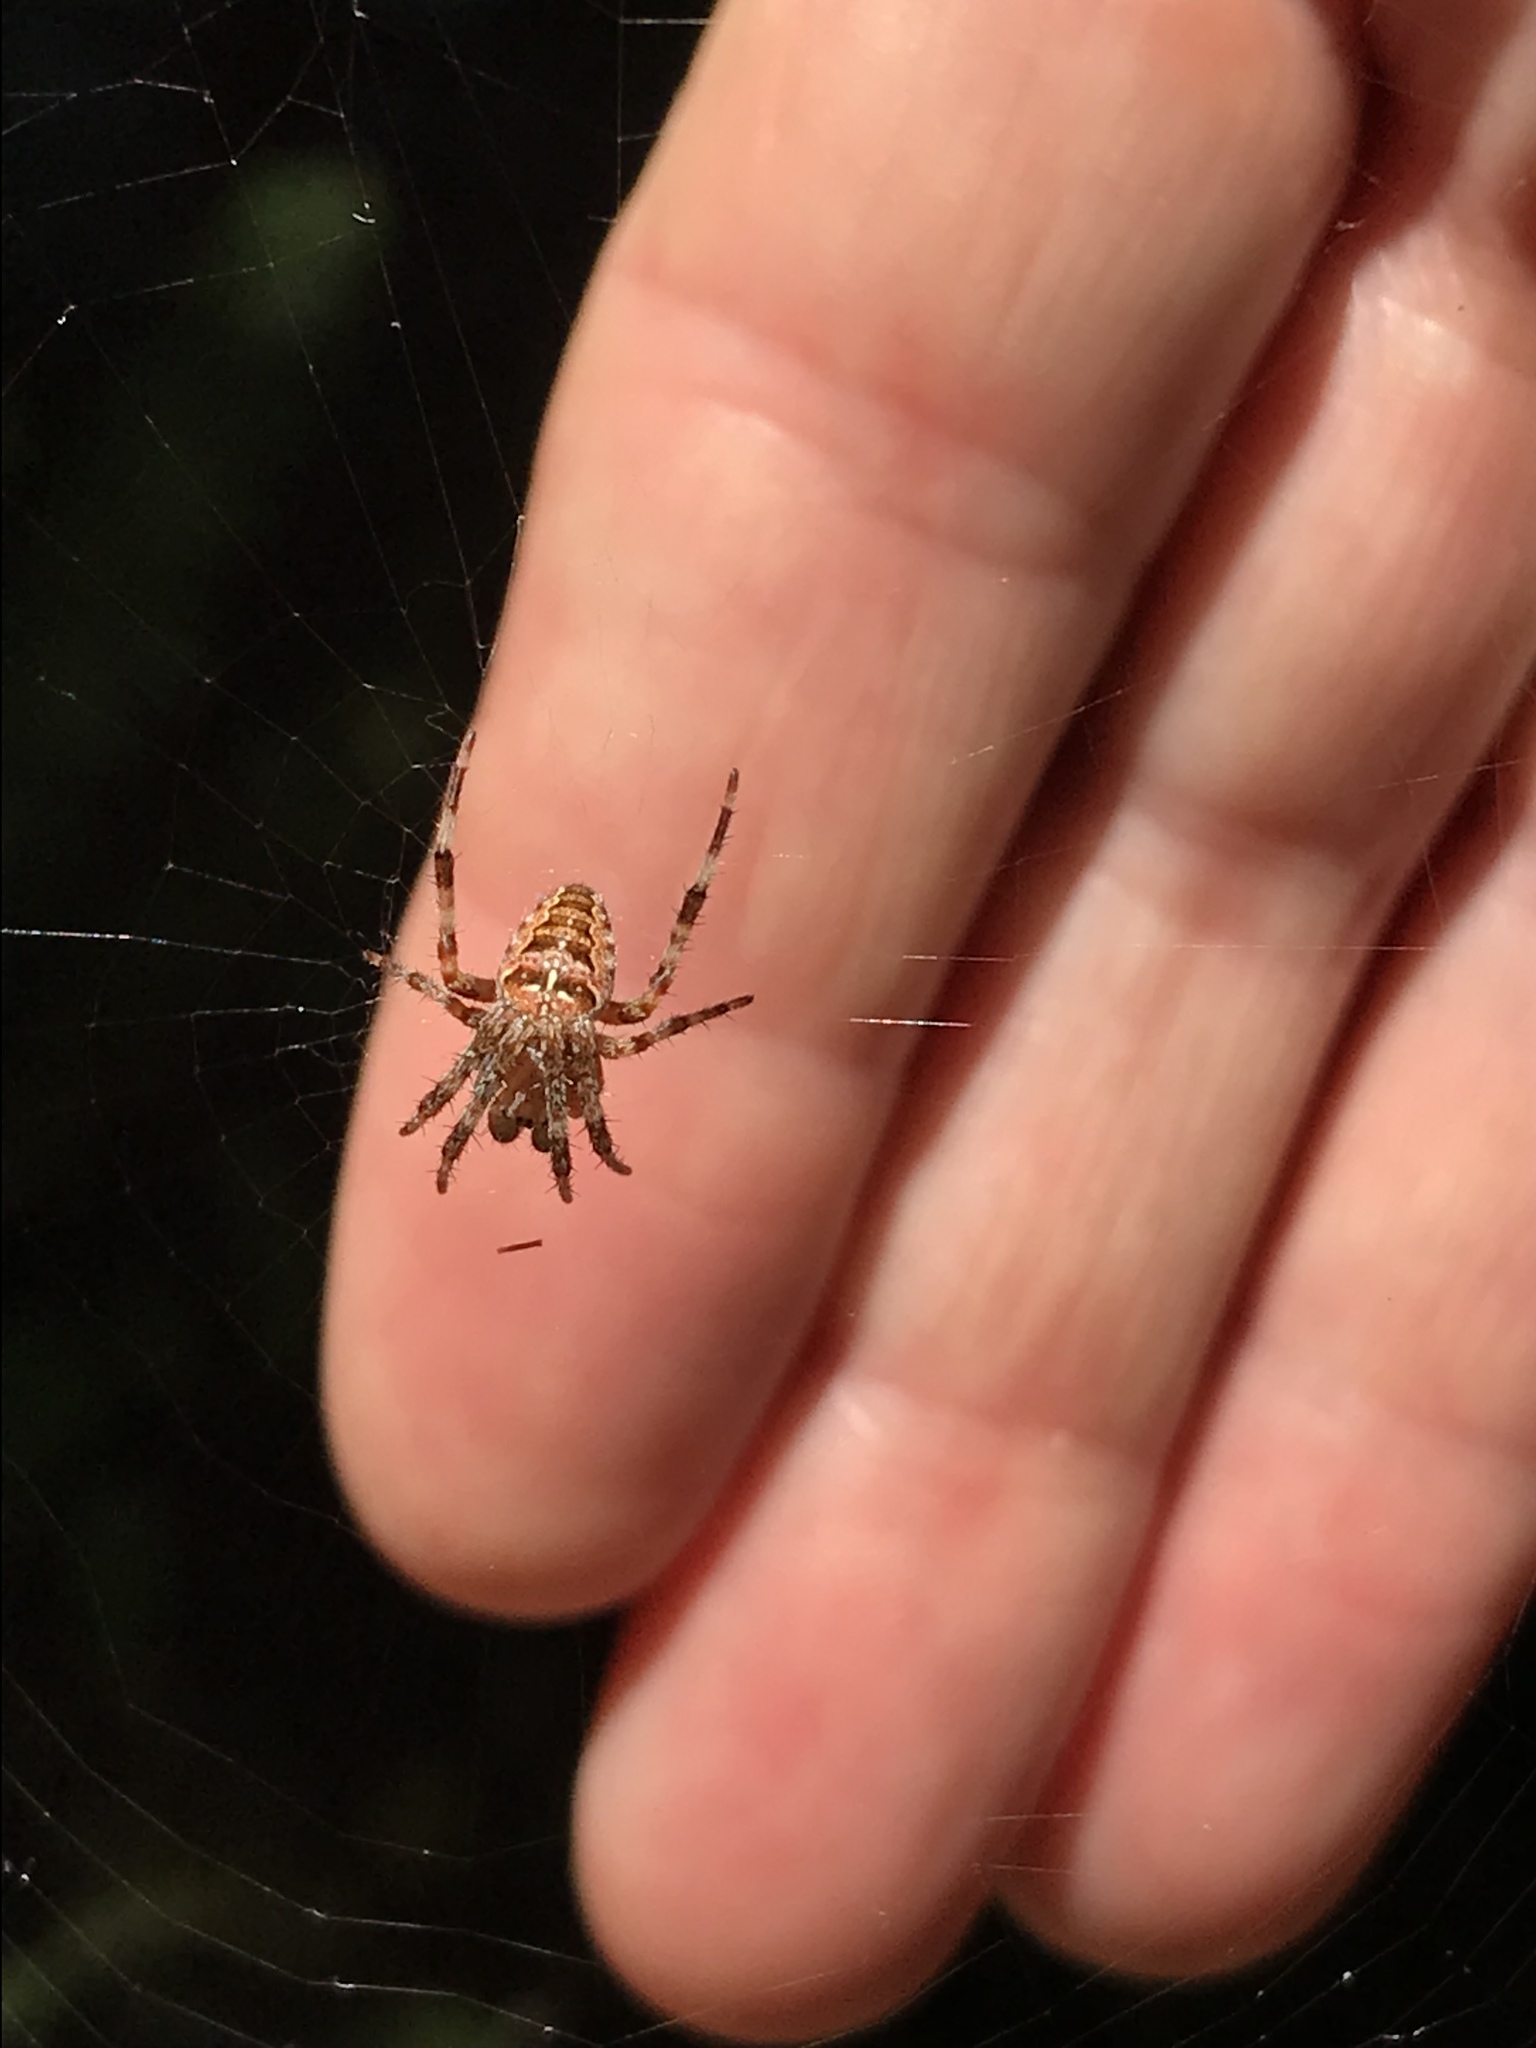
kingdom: Animalia
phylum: Arthropoda
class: Arachnida
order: Araneae
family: Araneidae
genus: Araneus
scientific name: Araneus diadematus
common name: Cross orbweaver
